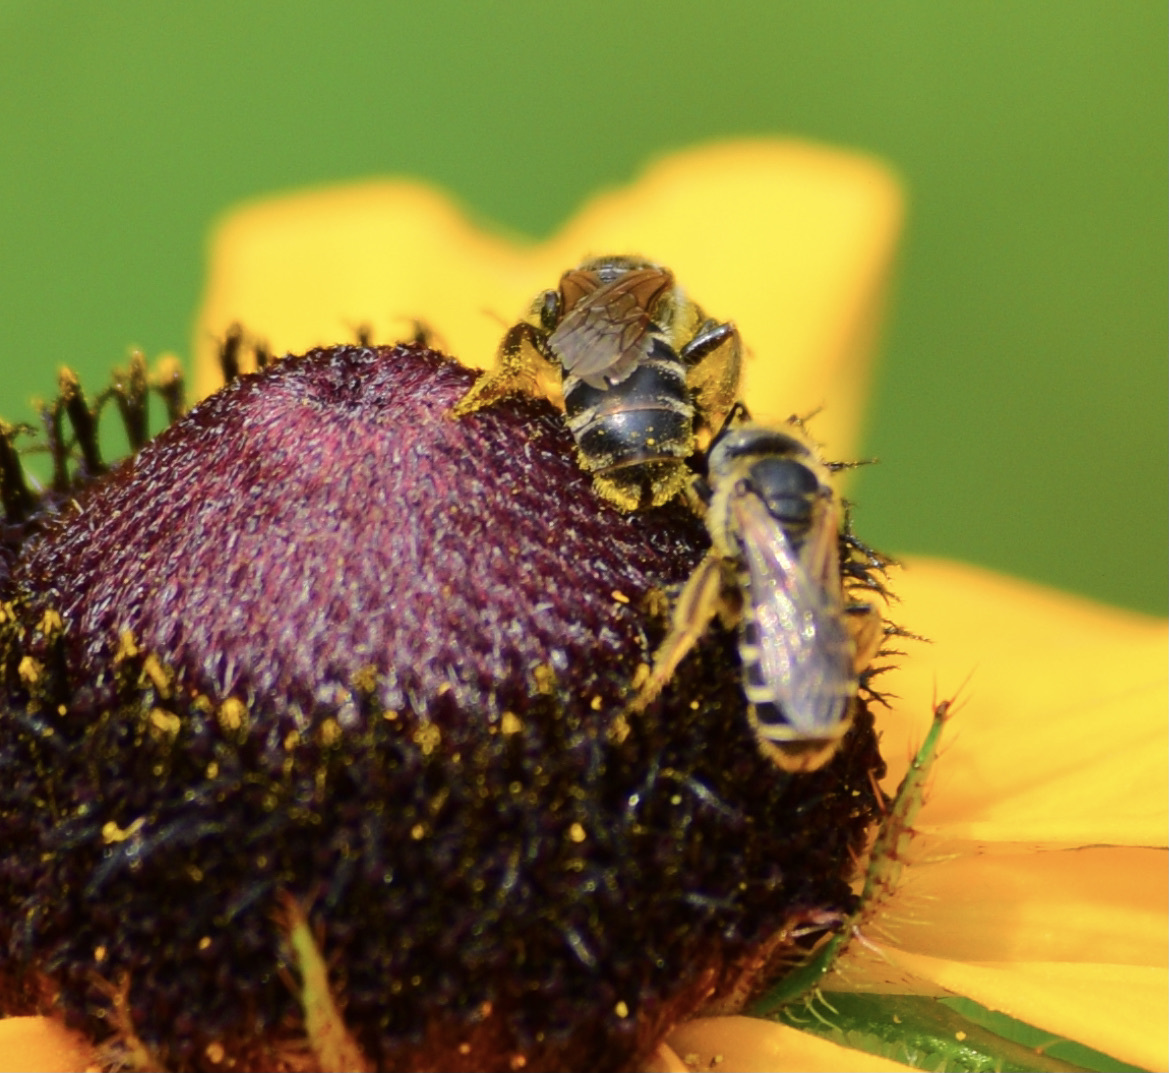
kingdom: Animalia
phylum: Arthropoda
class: Insecta
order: Hymenoptera
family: Halictidae
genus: Halictus
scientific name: Halictus ligatus
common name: Ligated furrow bee
